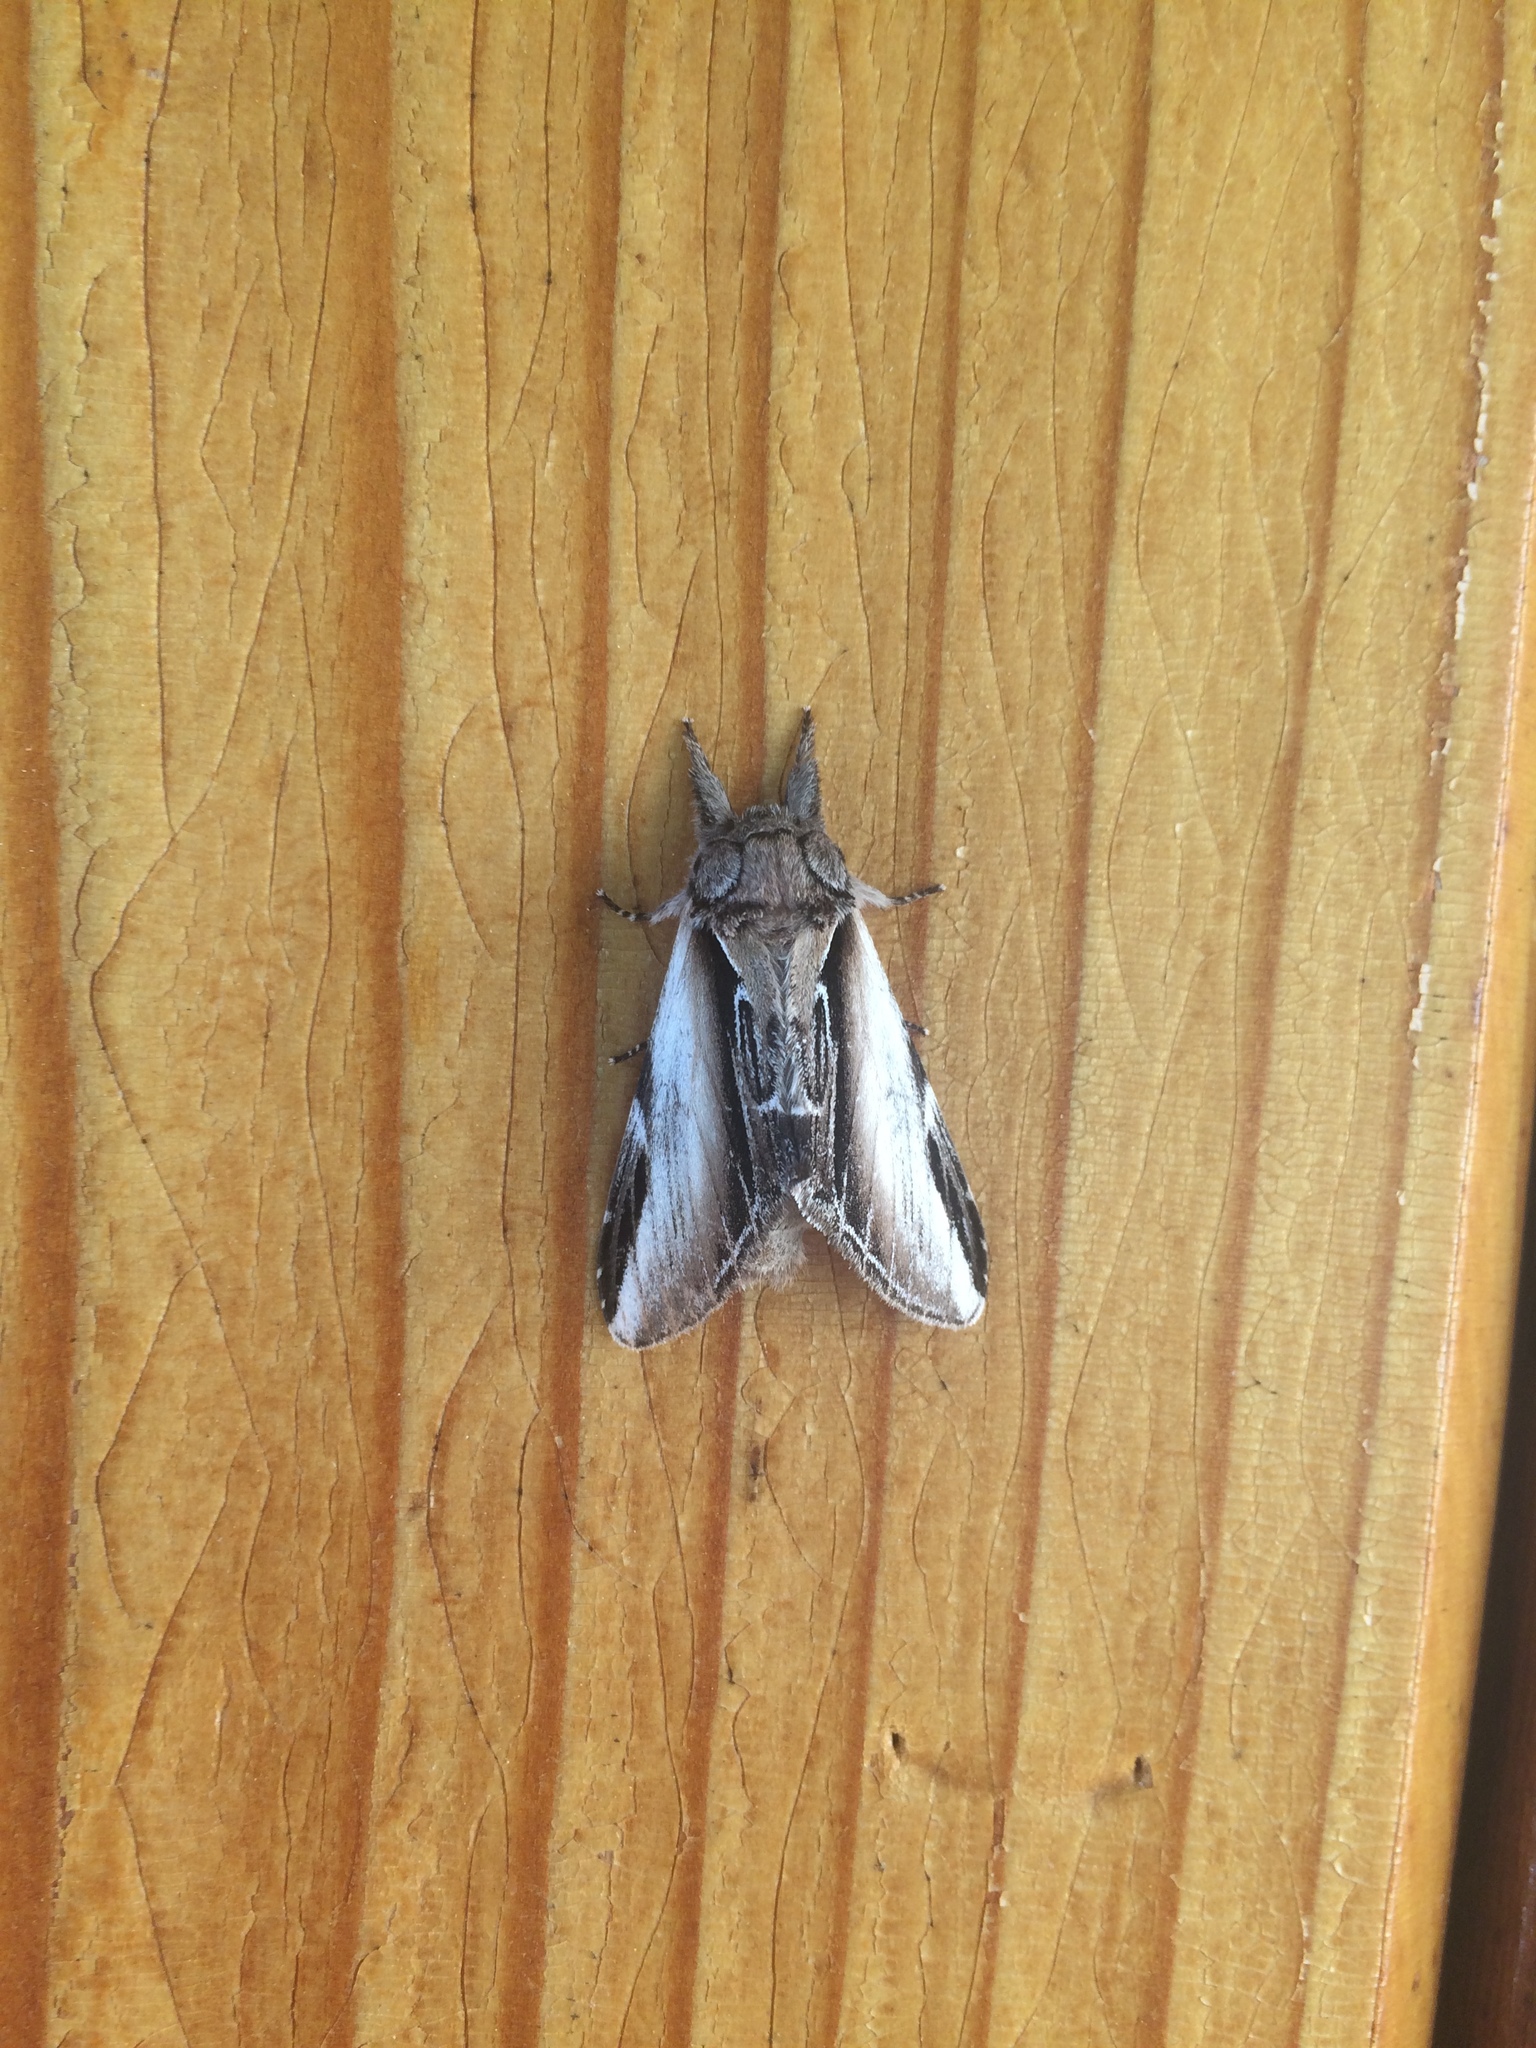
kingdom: Animalia
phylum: Arthropoda
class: Insecta
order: Lepidoptera
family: Notodontidae
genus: Pheosia
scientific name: Pheosia rimosa
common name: Black-rimmed prominent
